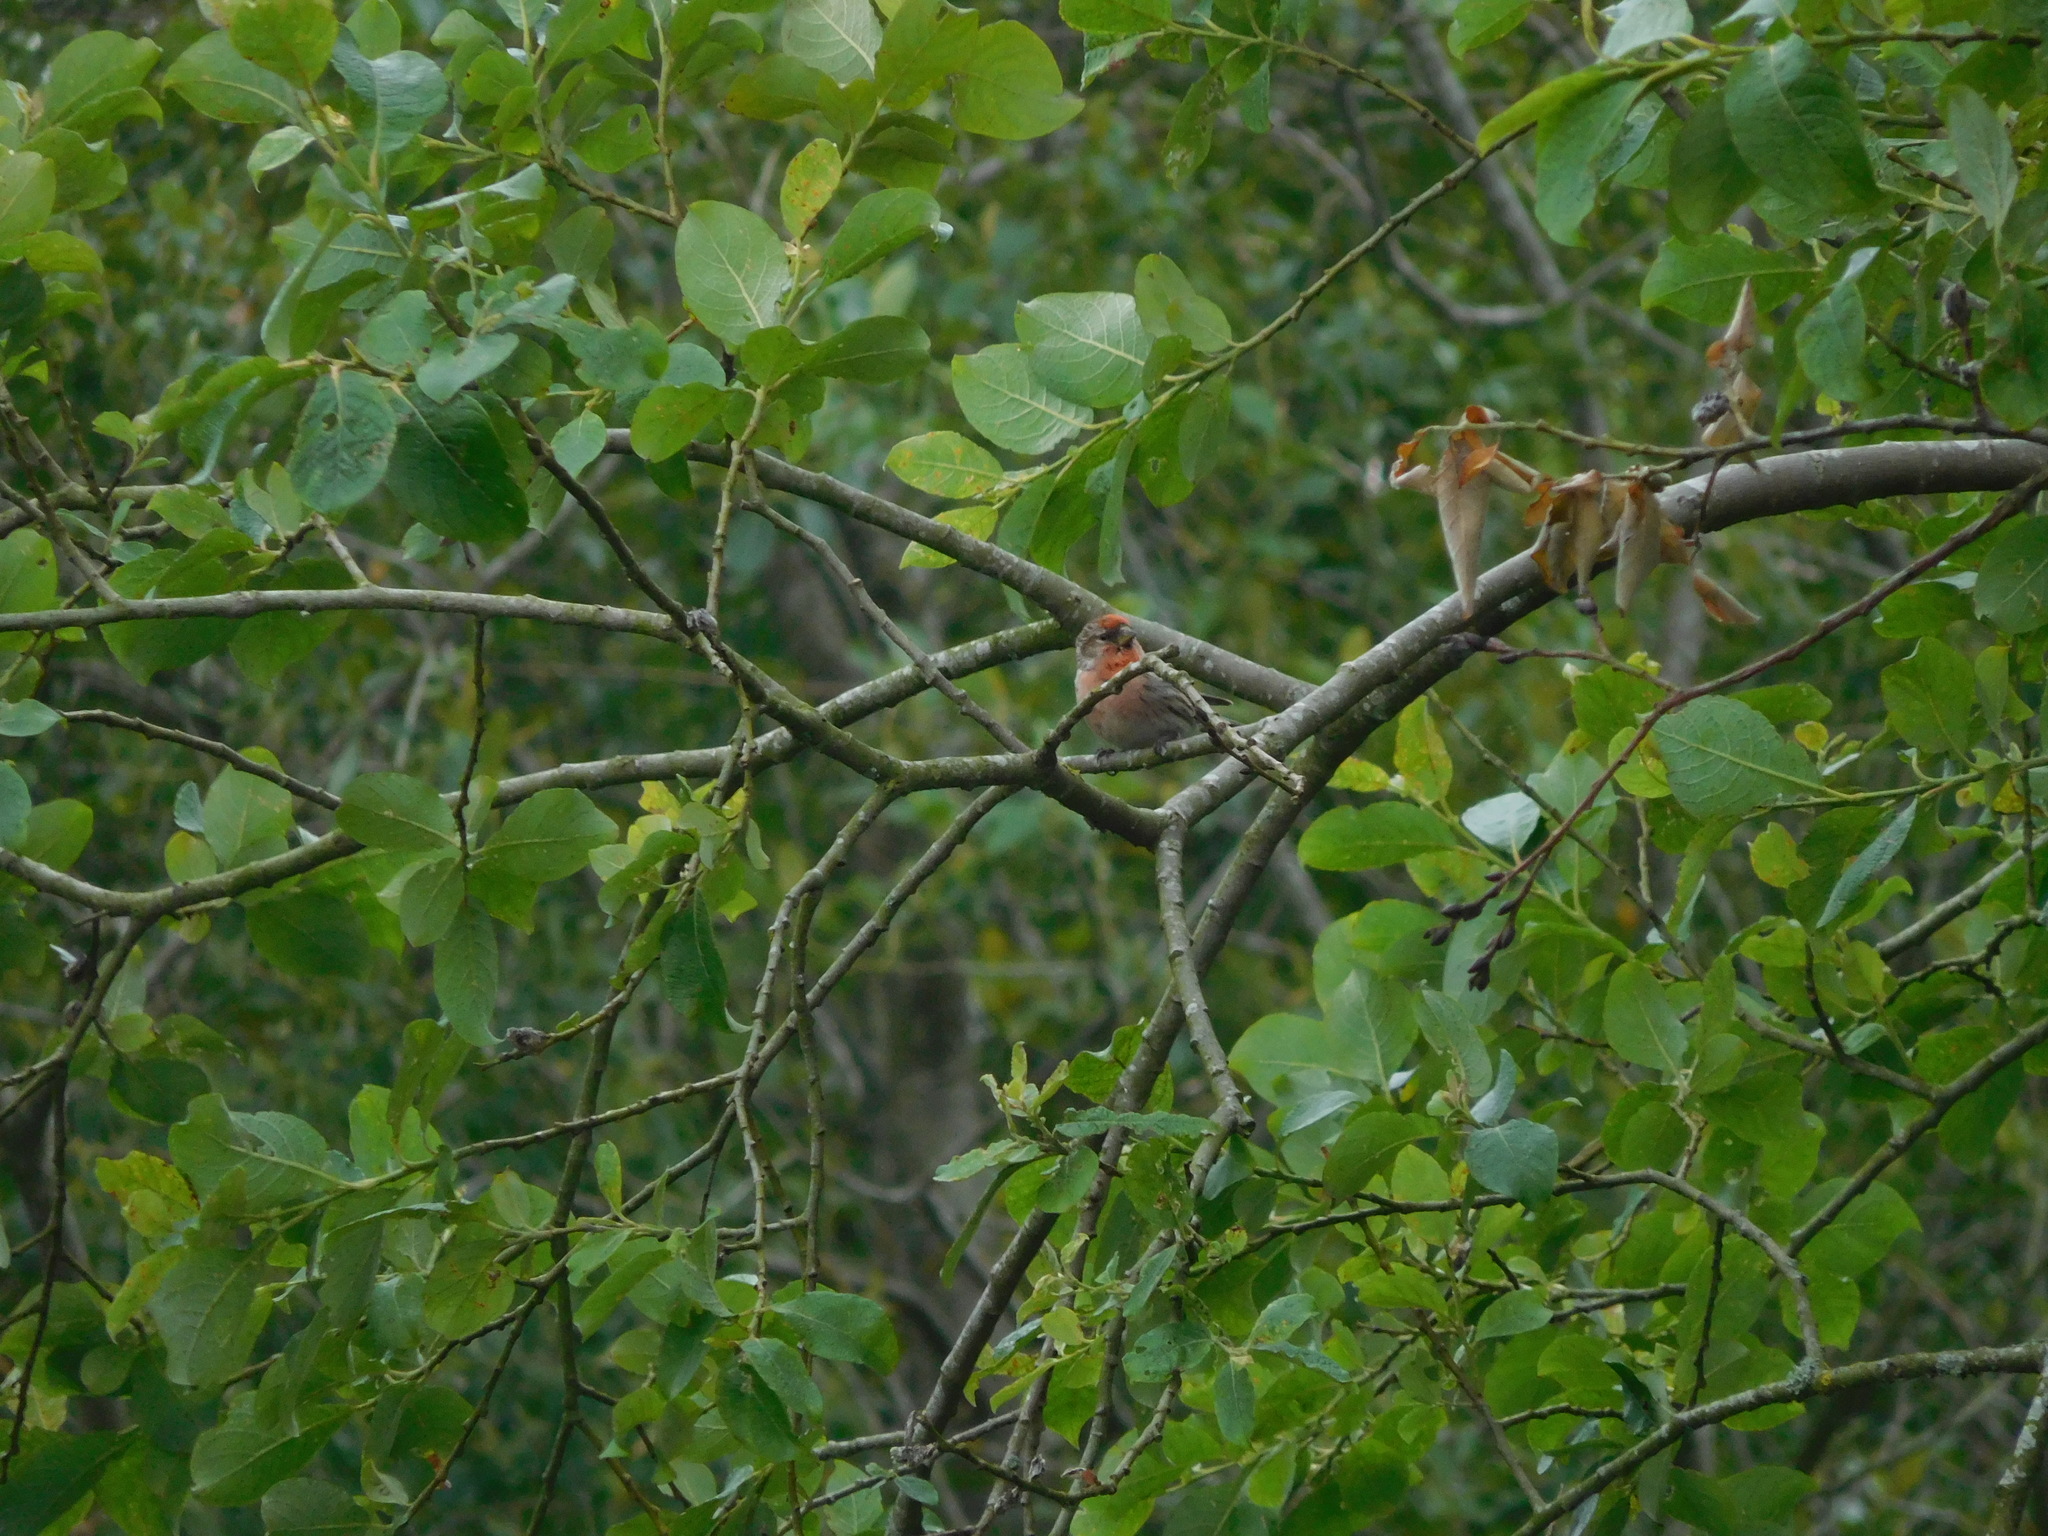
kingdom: Animalia
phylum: Chordata
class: Aves
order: Passeriformes
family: Fringillidae
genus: Acanthis
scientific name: Acanthis flammea
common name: Common redpoll
